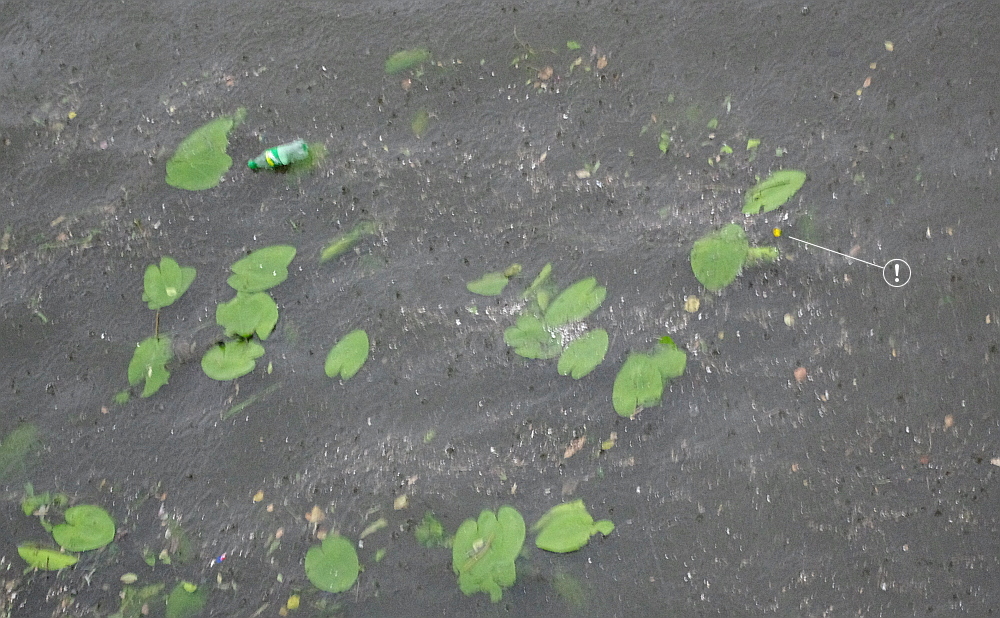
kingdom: Plantae
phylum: Tracheophyta
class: Magnoliopsida
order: Nymphaeales
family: Nymphaeaceae
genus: Nuphar
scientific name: Nuphar lutea
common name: Yellow water-lily
